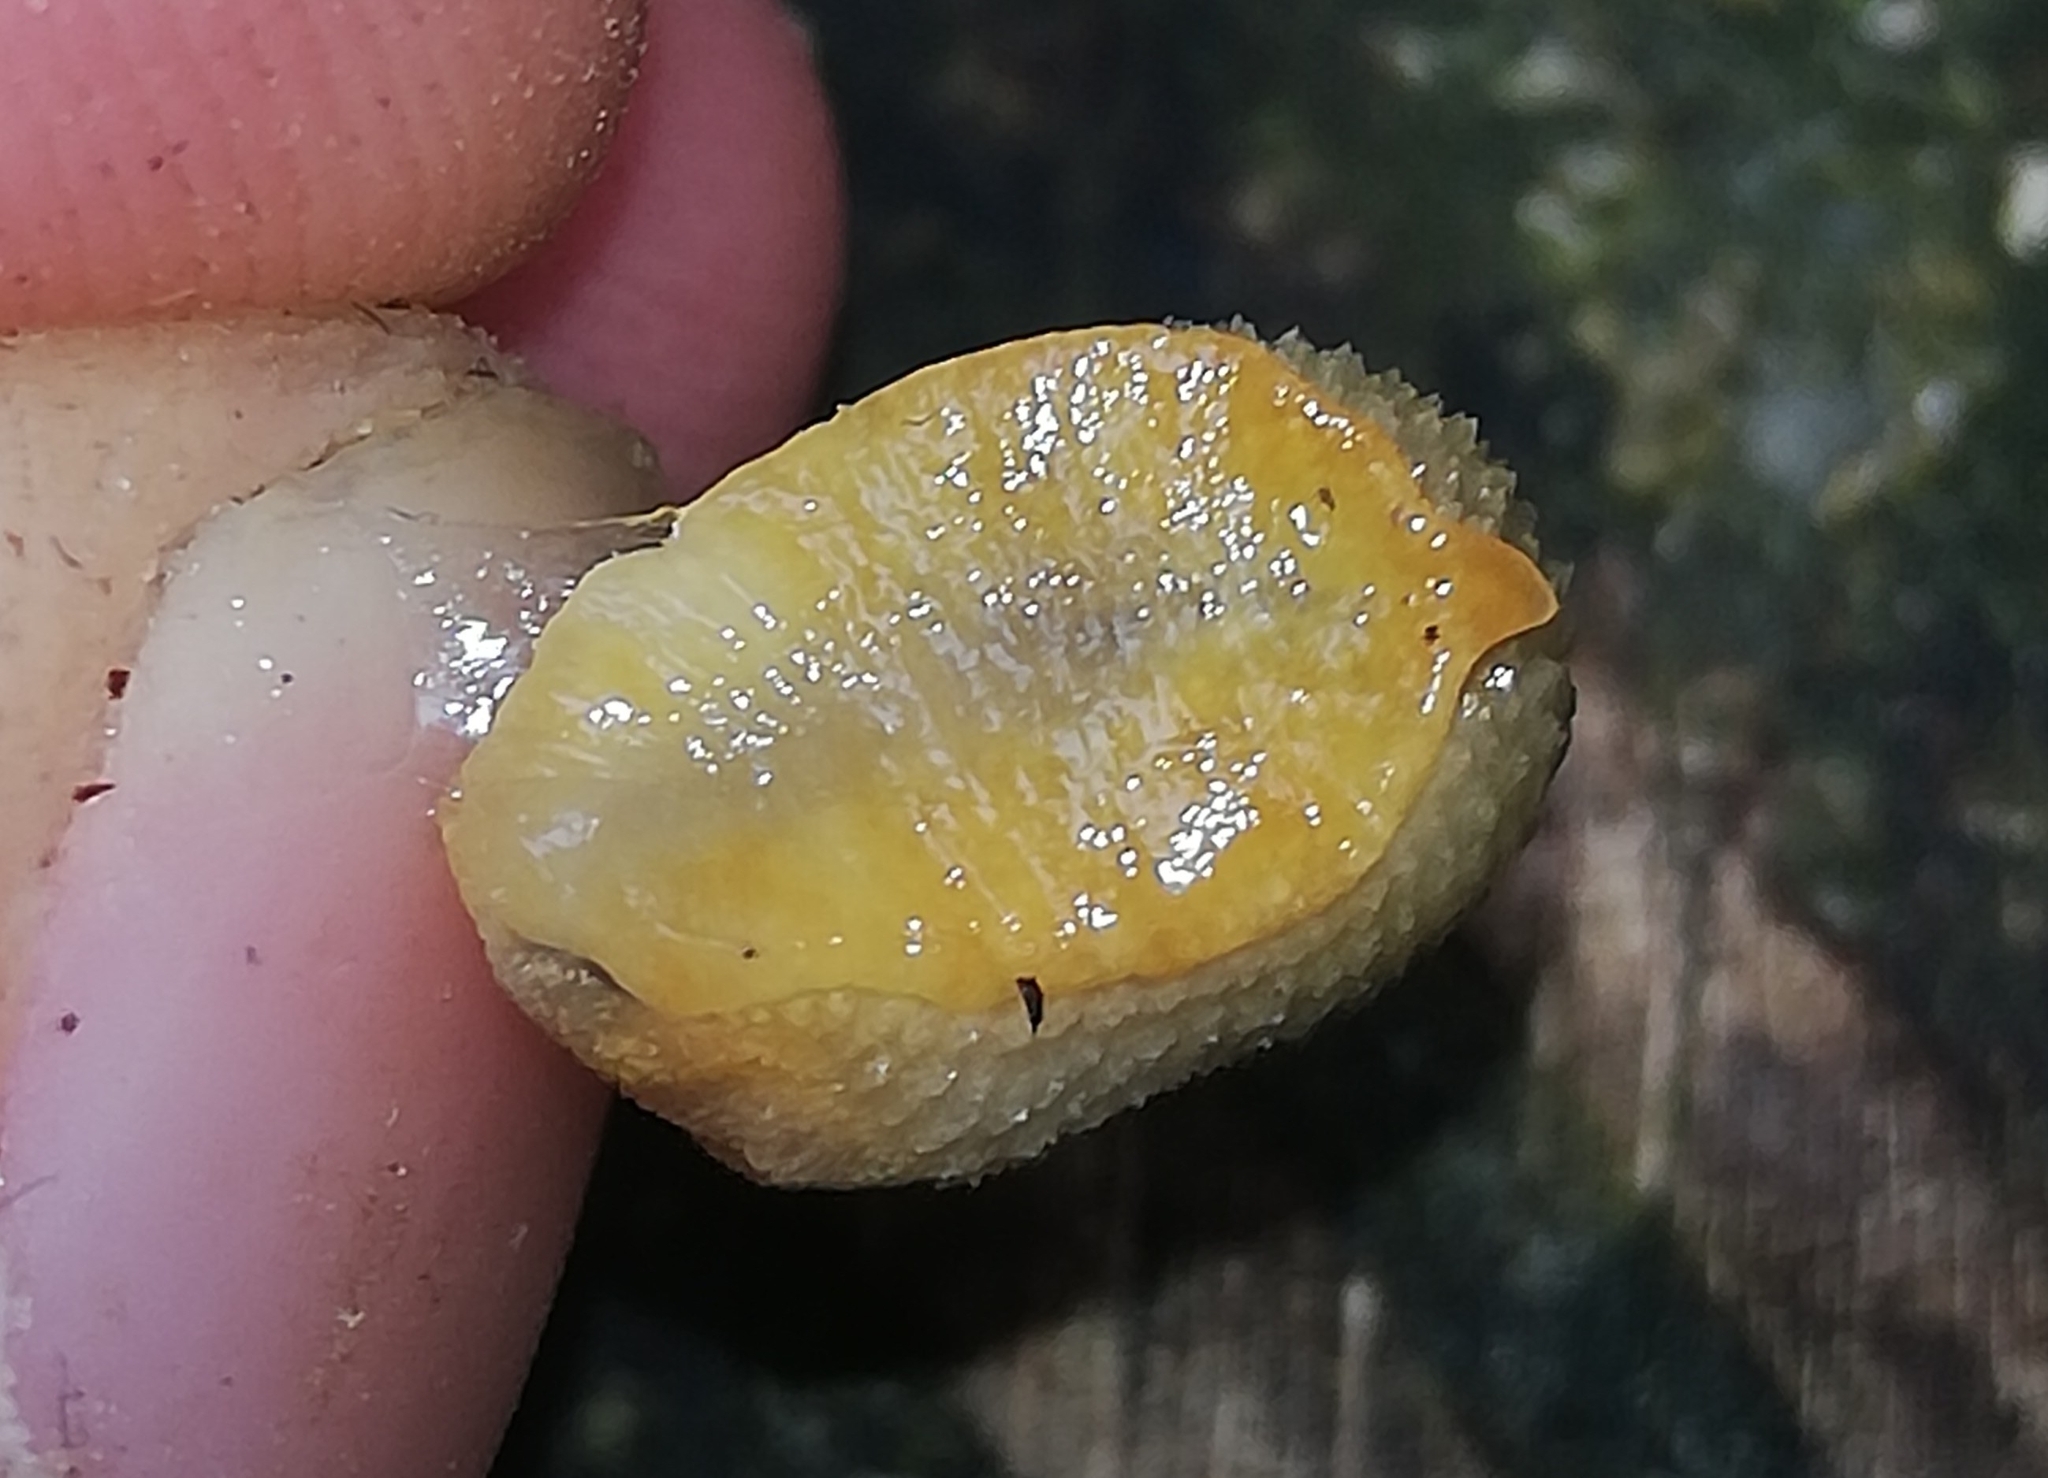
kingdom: Animalia
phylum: Mollusca
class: Gastropoda
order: Stylommatophora
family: Arionidae
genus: Arion
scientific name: Arion intermedius
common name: Hedgehog slug
